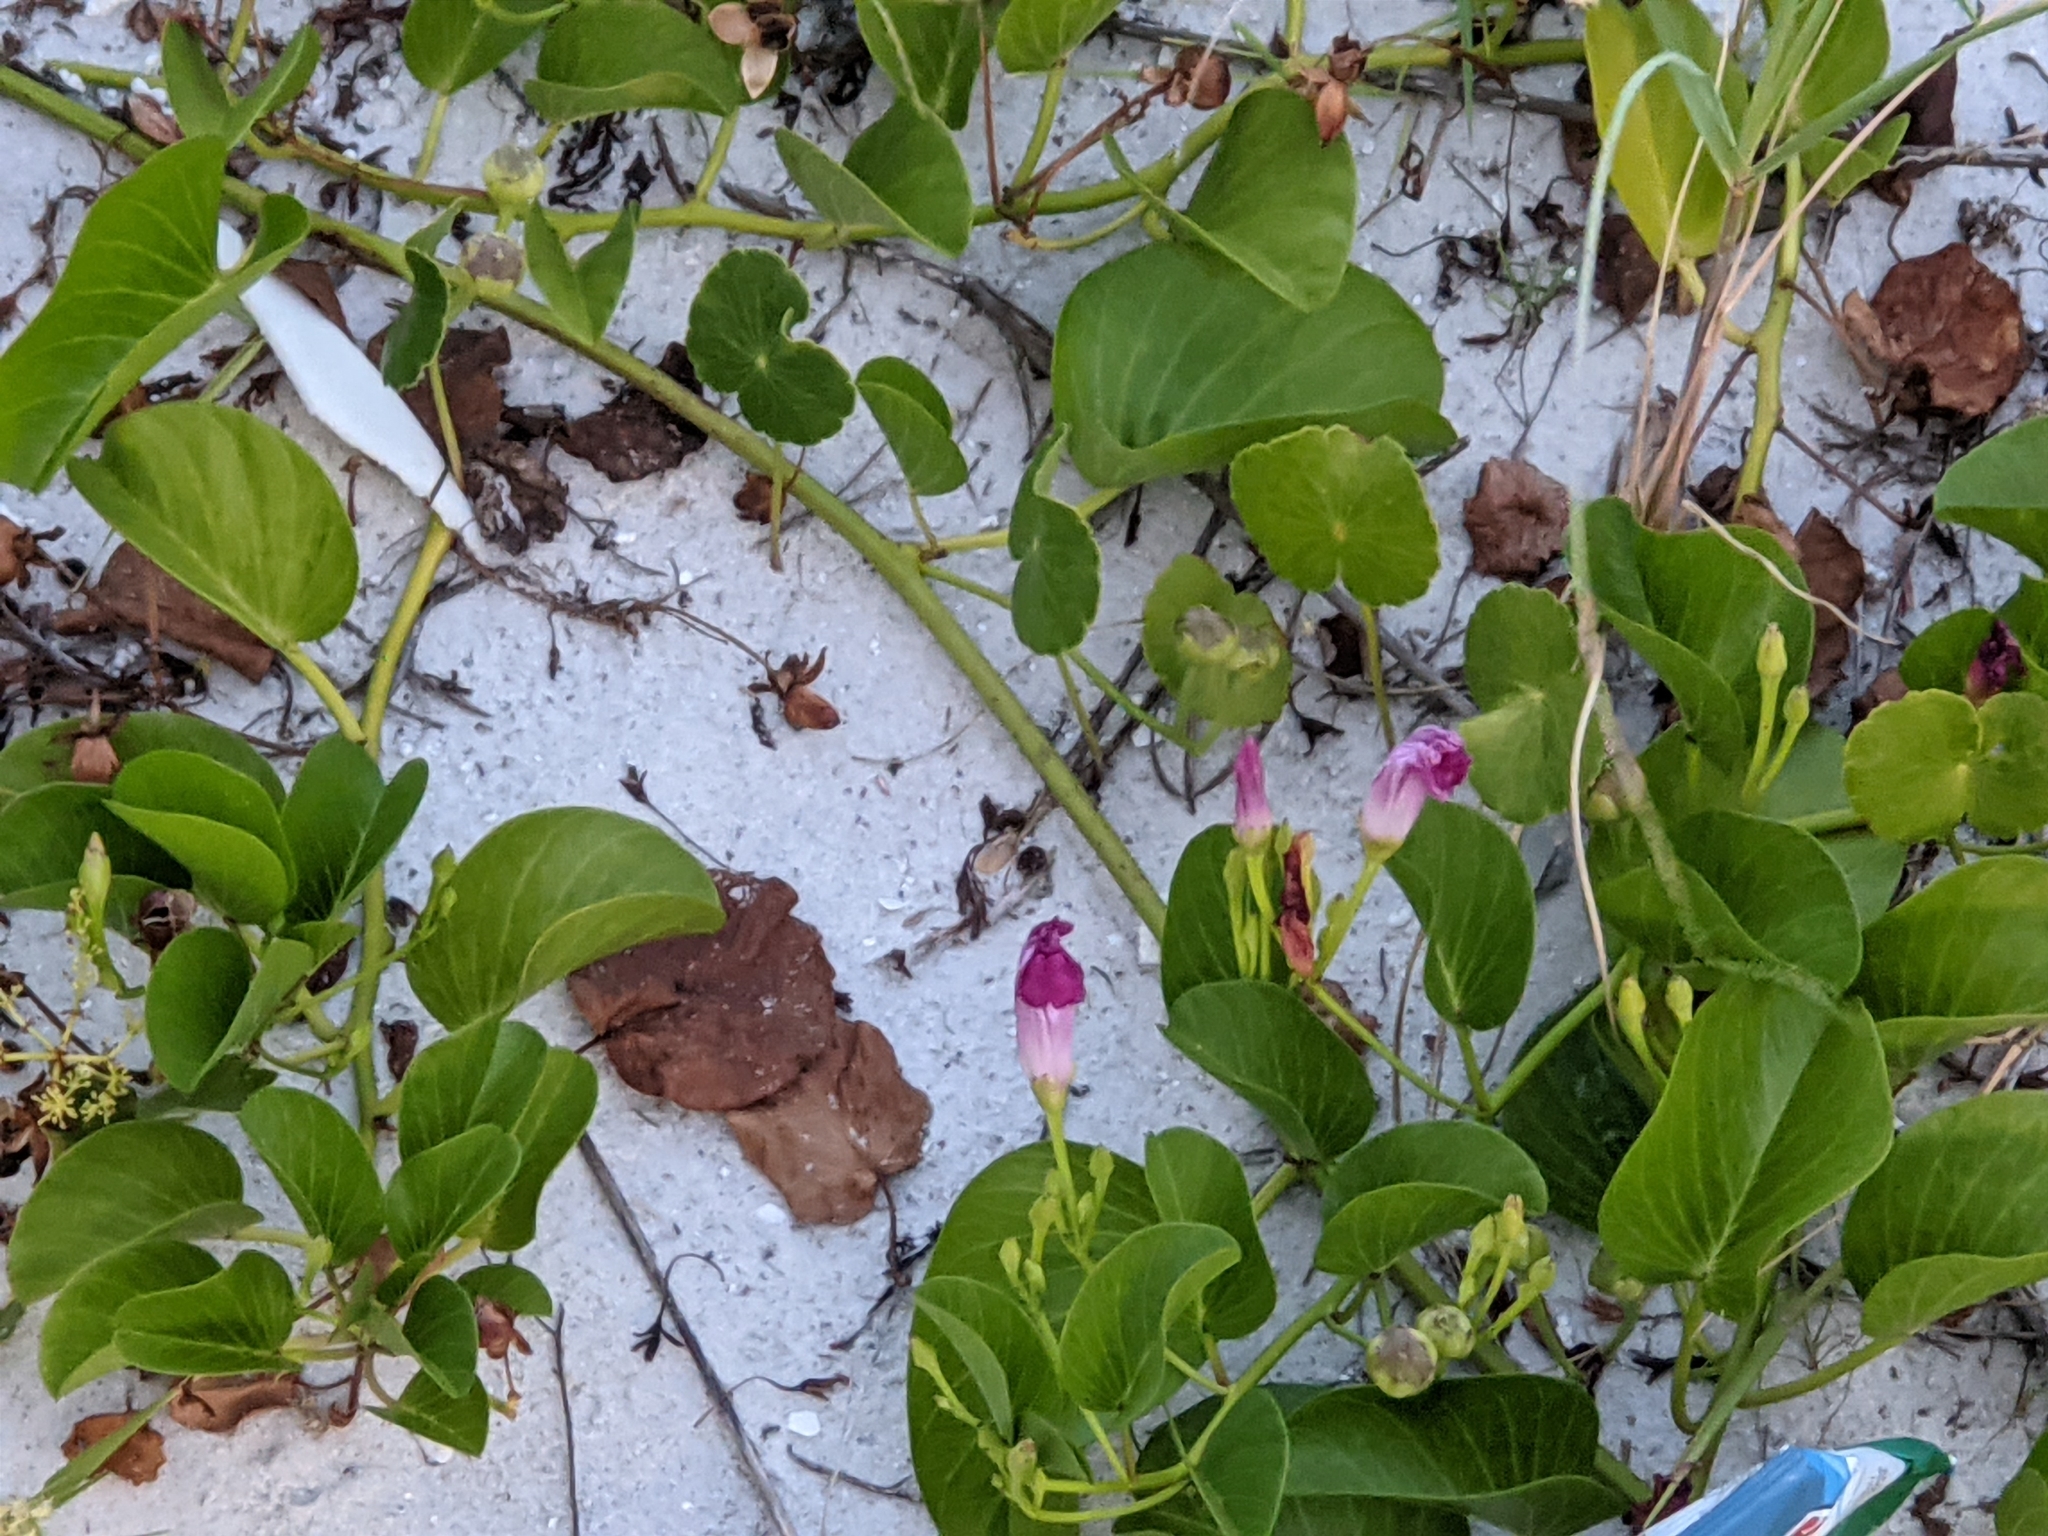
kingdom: Plantae
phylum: Tracheophyta
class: Magnoliopsida
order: Solanales
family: Convolvulaceae
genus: Ipomoea
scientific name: Ipomoea pes-caprae
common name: Beach morning glory
